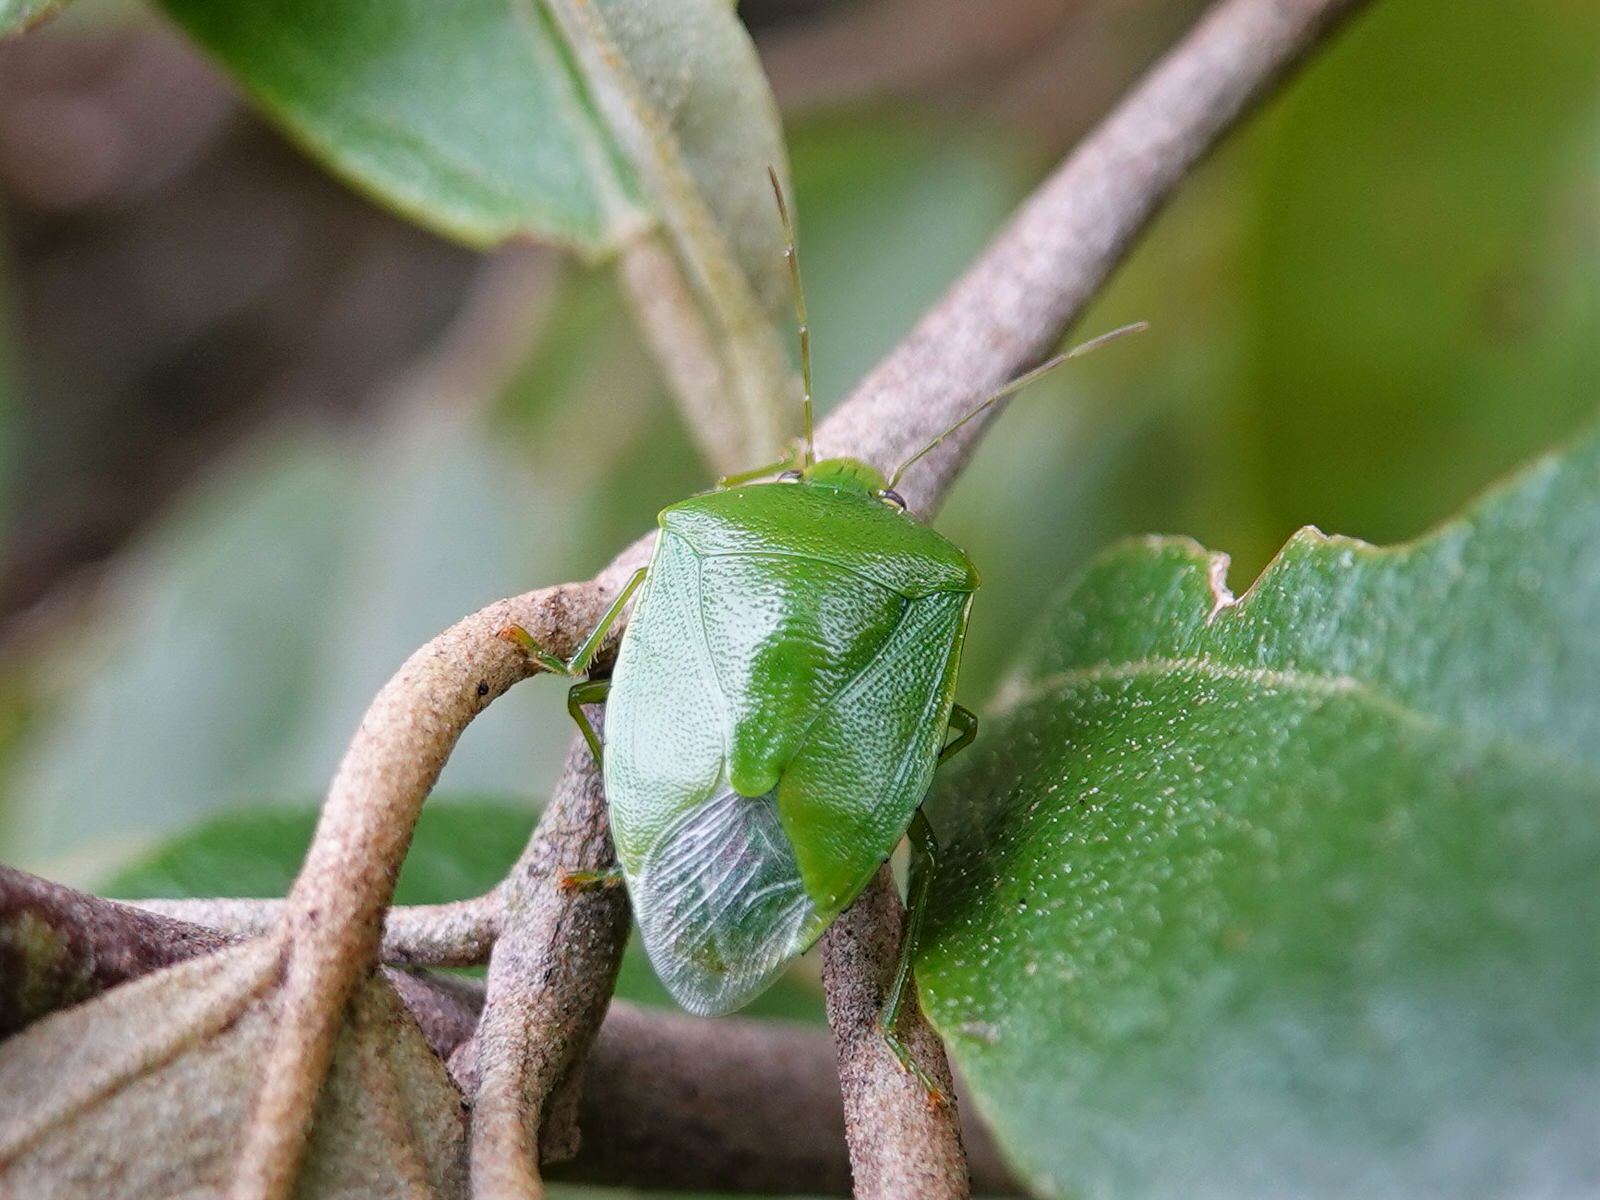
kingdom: Animalia
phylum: Arthropoda
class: Insecta
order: Hemiptera
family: Pentatomidae
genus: Glaucias
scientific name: Glaucias amyota
